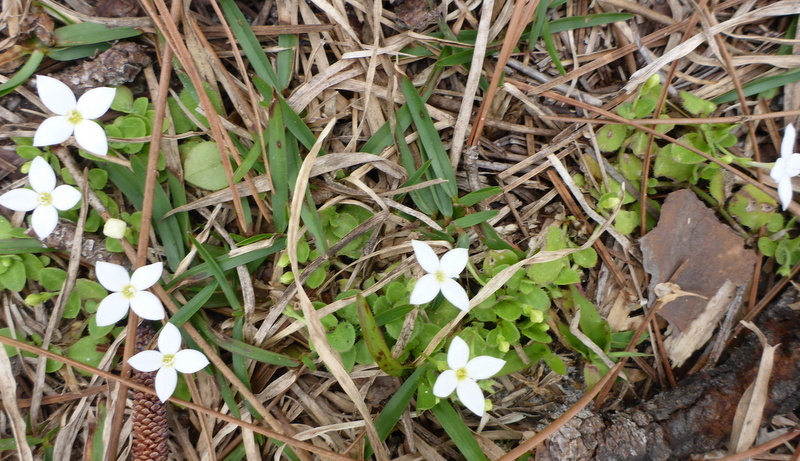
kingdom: Plantae
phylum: Tracheophyta
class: Magnoliopsida
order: Gentianales
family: Rubiaceae
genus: Houstonia
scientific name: Houstonia procumbens
